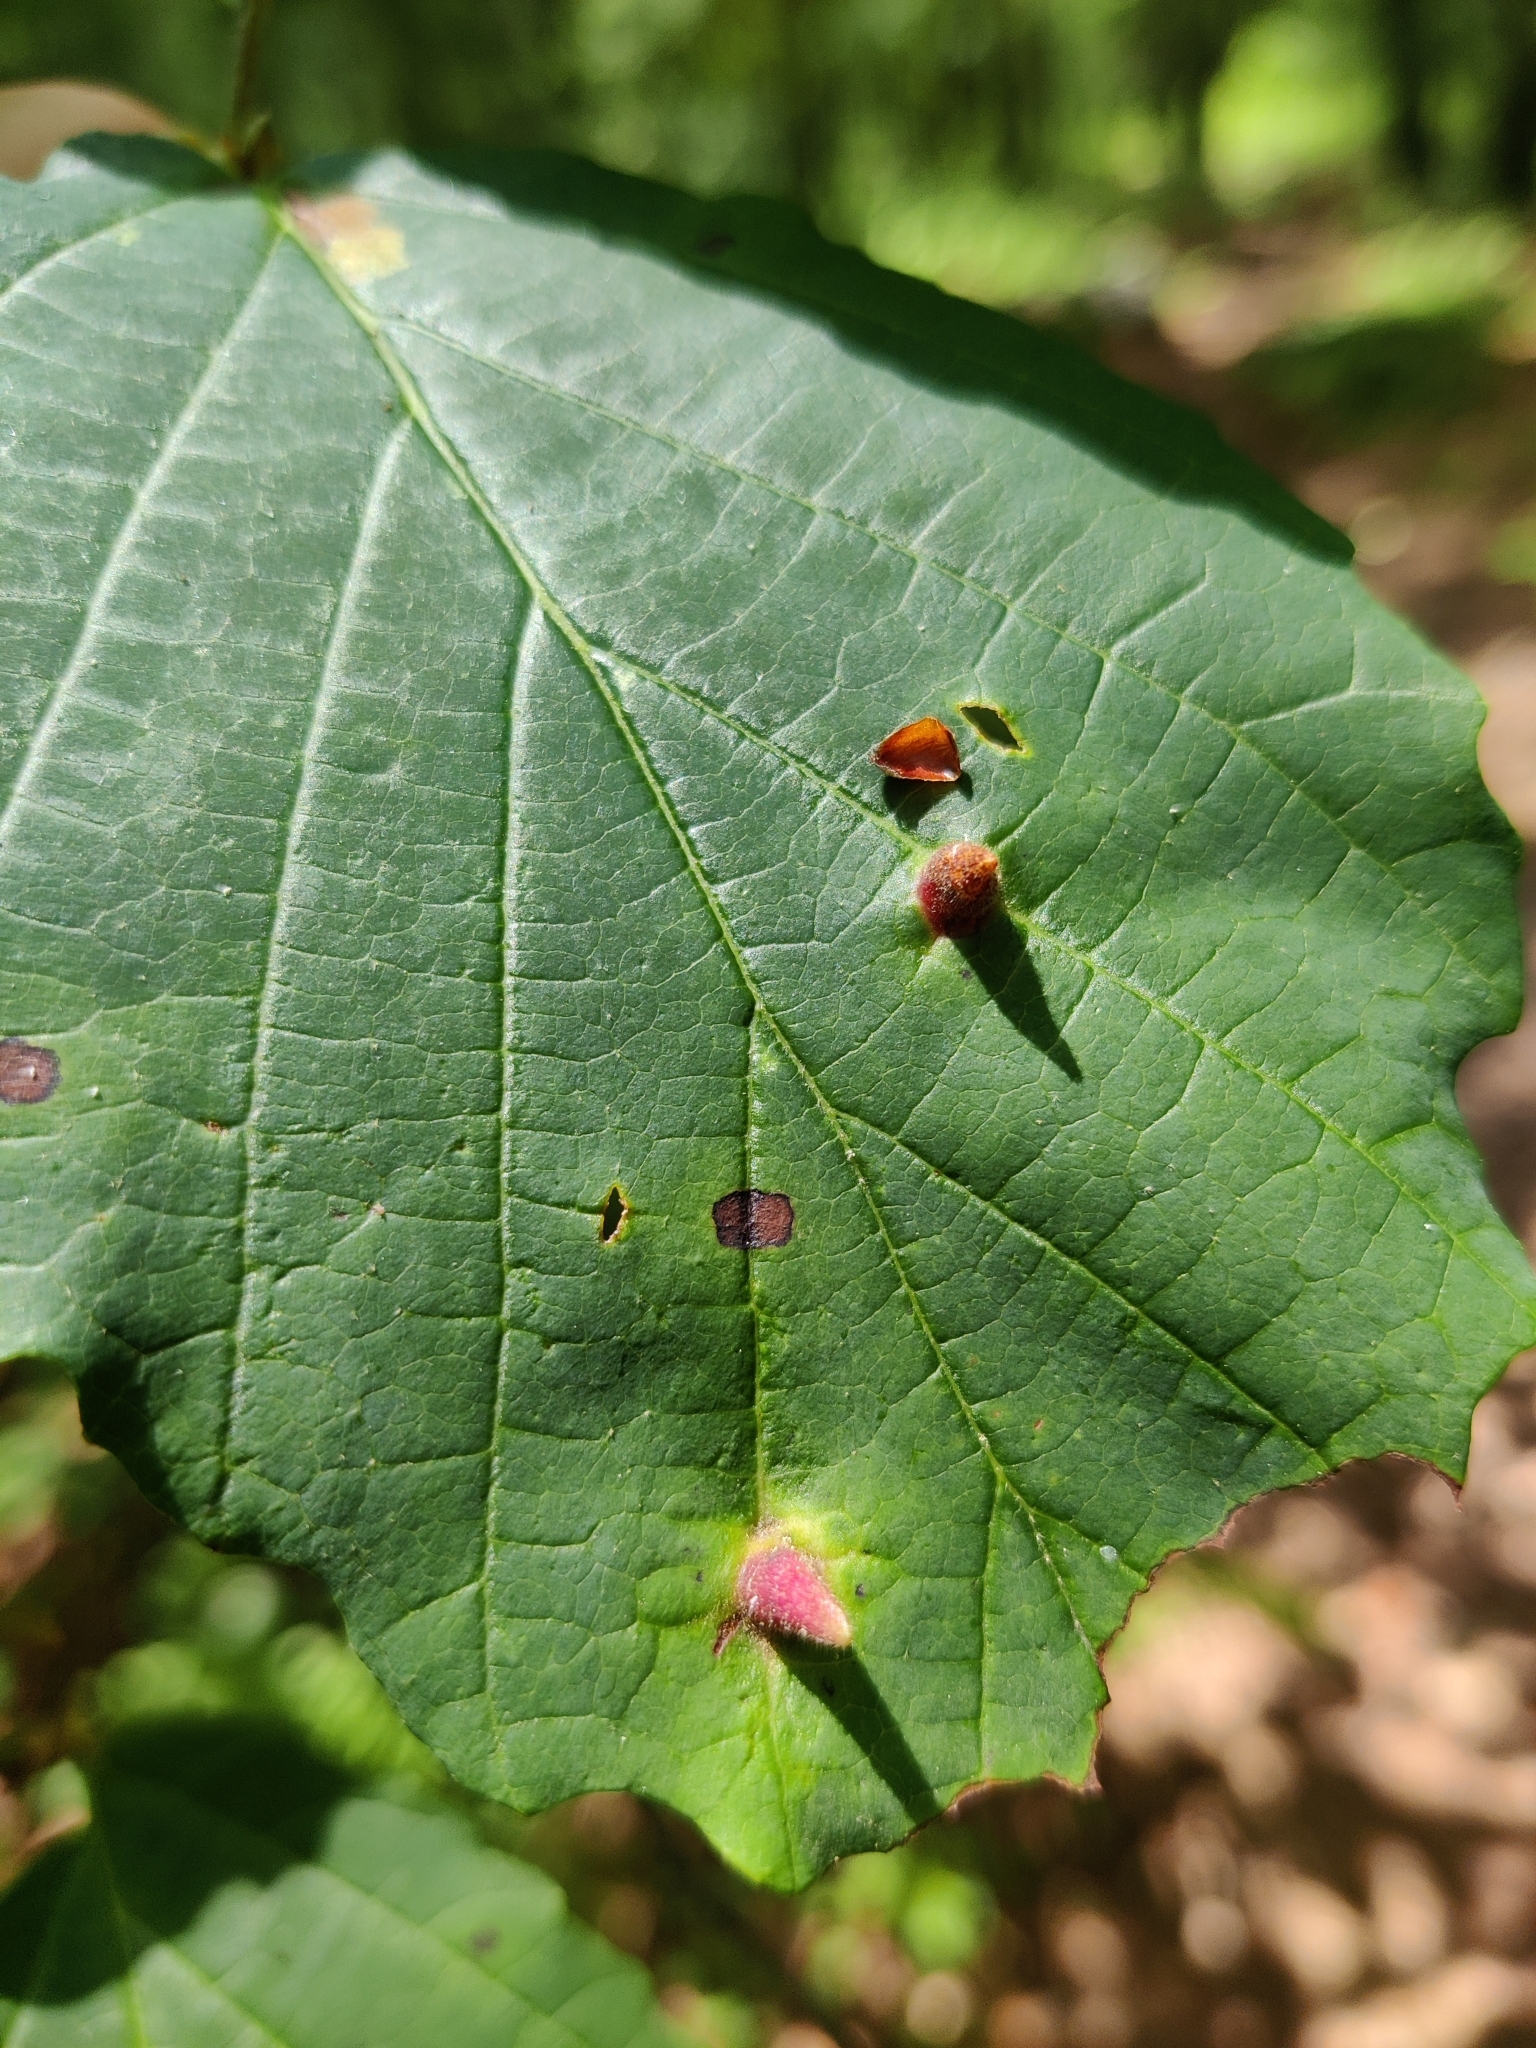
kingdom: Animalia
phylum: Arthropoda
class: Insecta
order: Hemiptera
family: Aphididae
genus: Hormaphis
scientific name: Hormaphis hamamelidis
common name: Witch-hazel cone gall aphid
